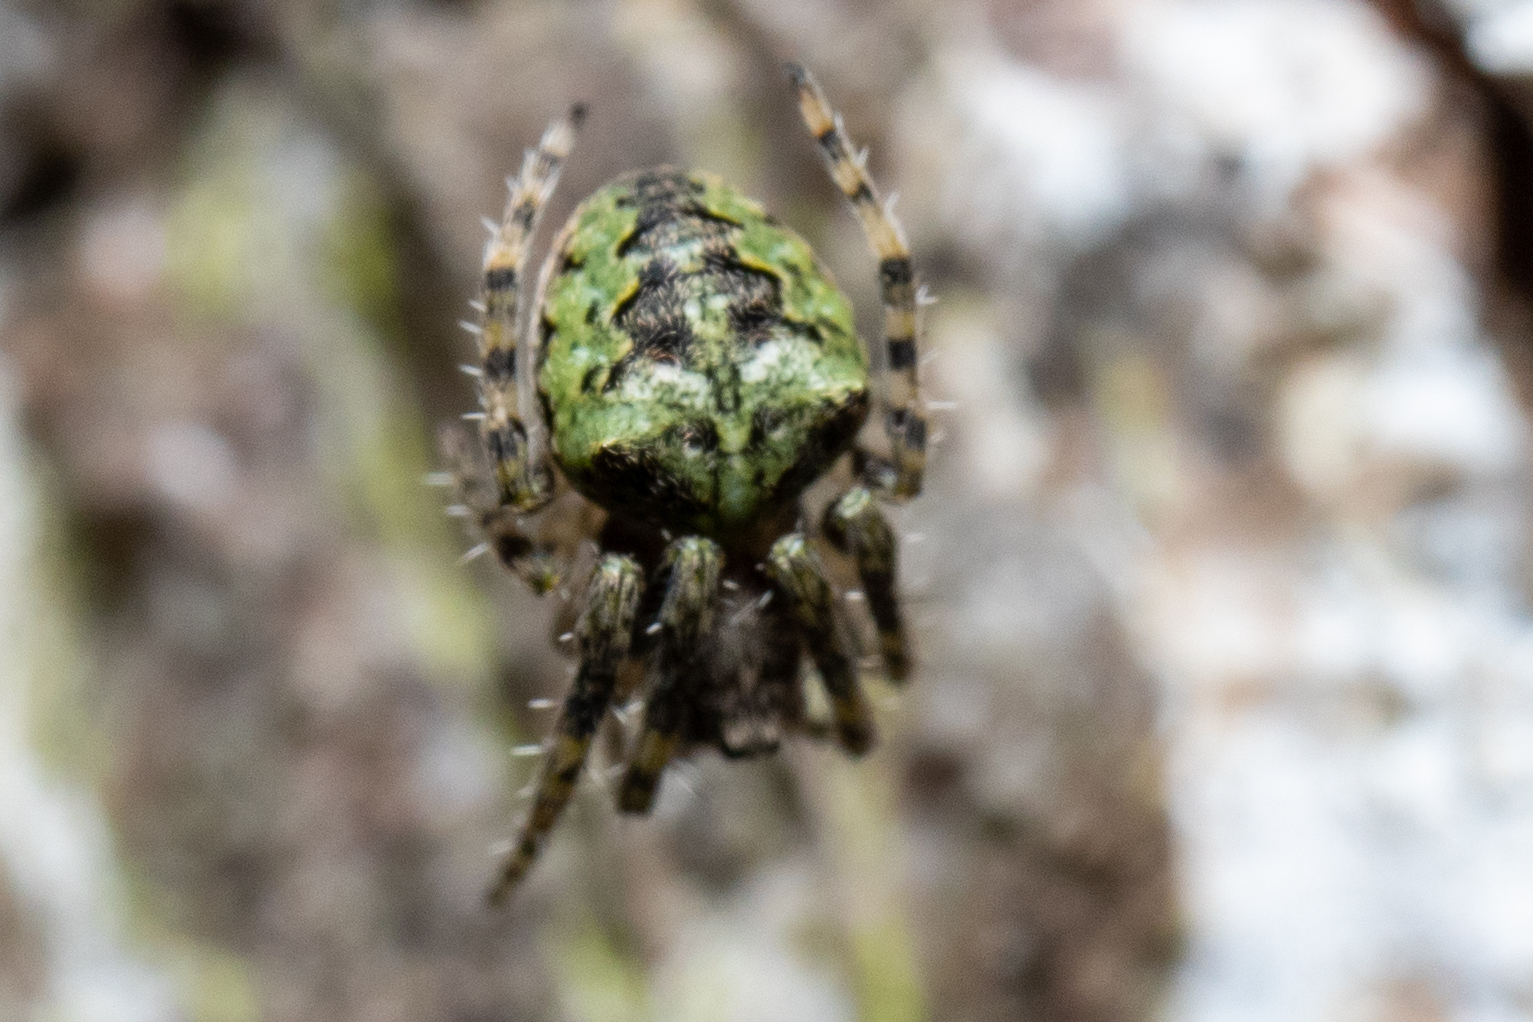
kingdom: Animalia
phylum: Arthropoda
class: Arachnida
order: Araneae
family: Araneidae
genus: Gibbaranea
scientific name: Gibbaranea gibbosa
